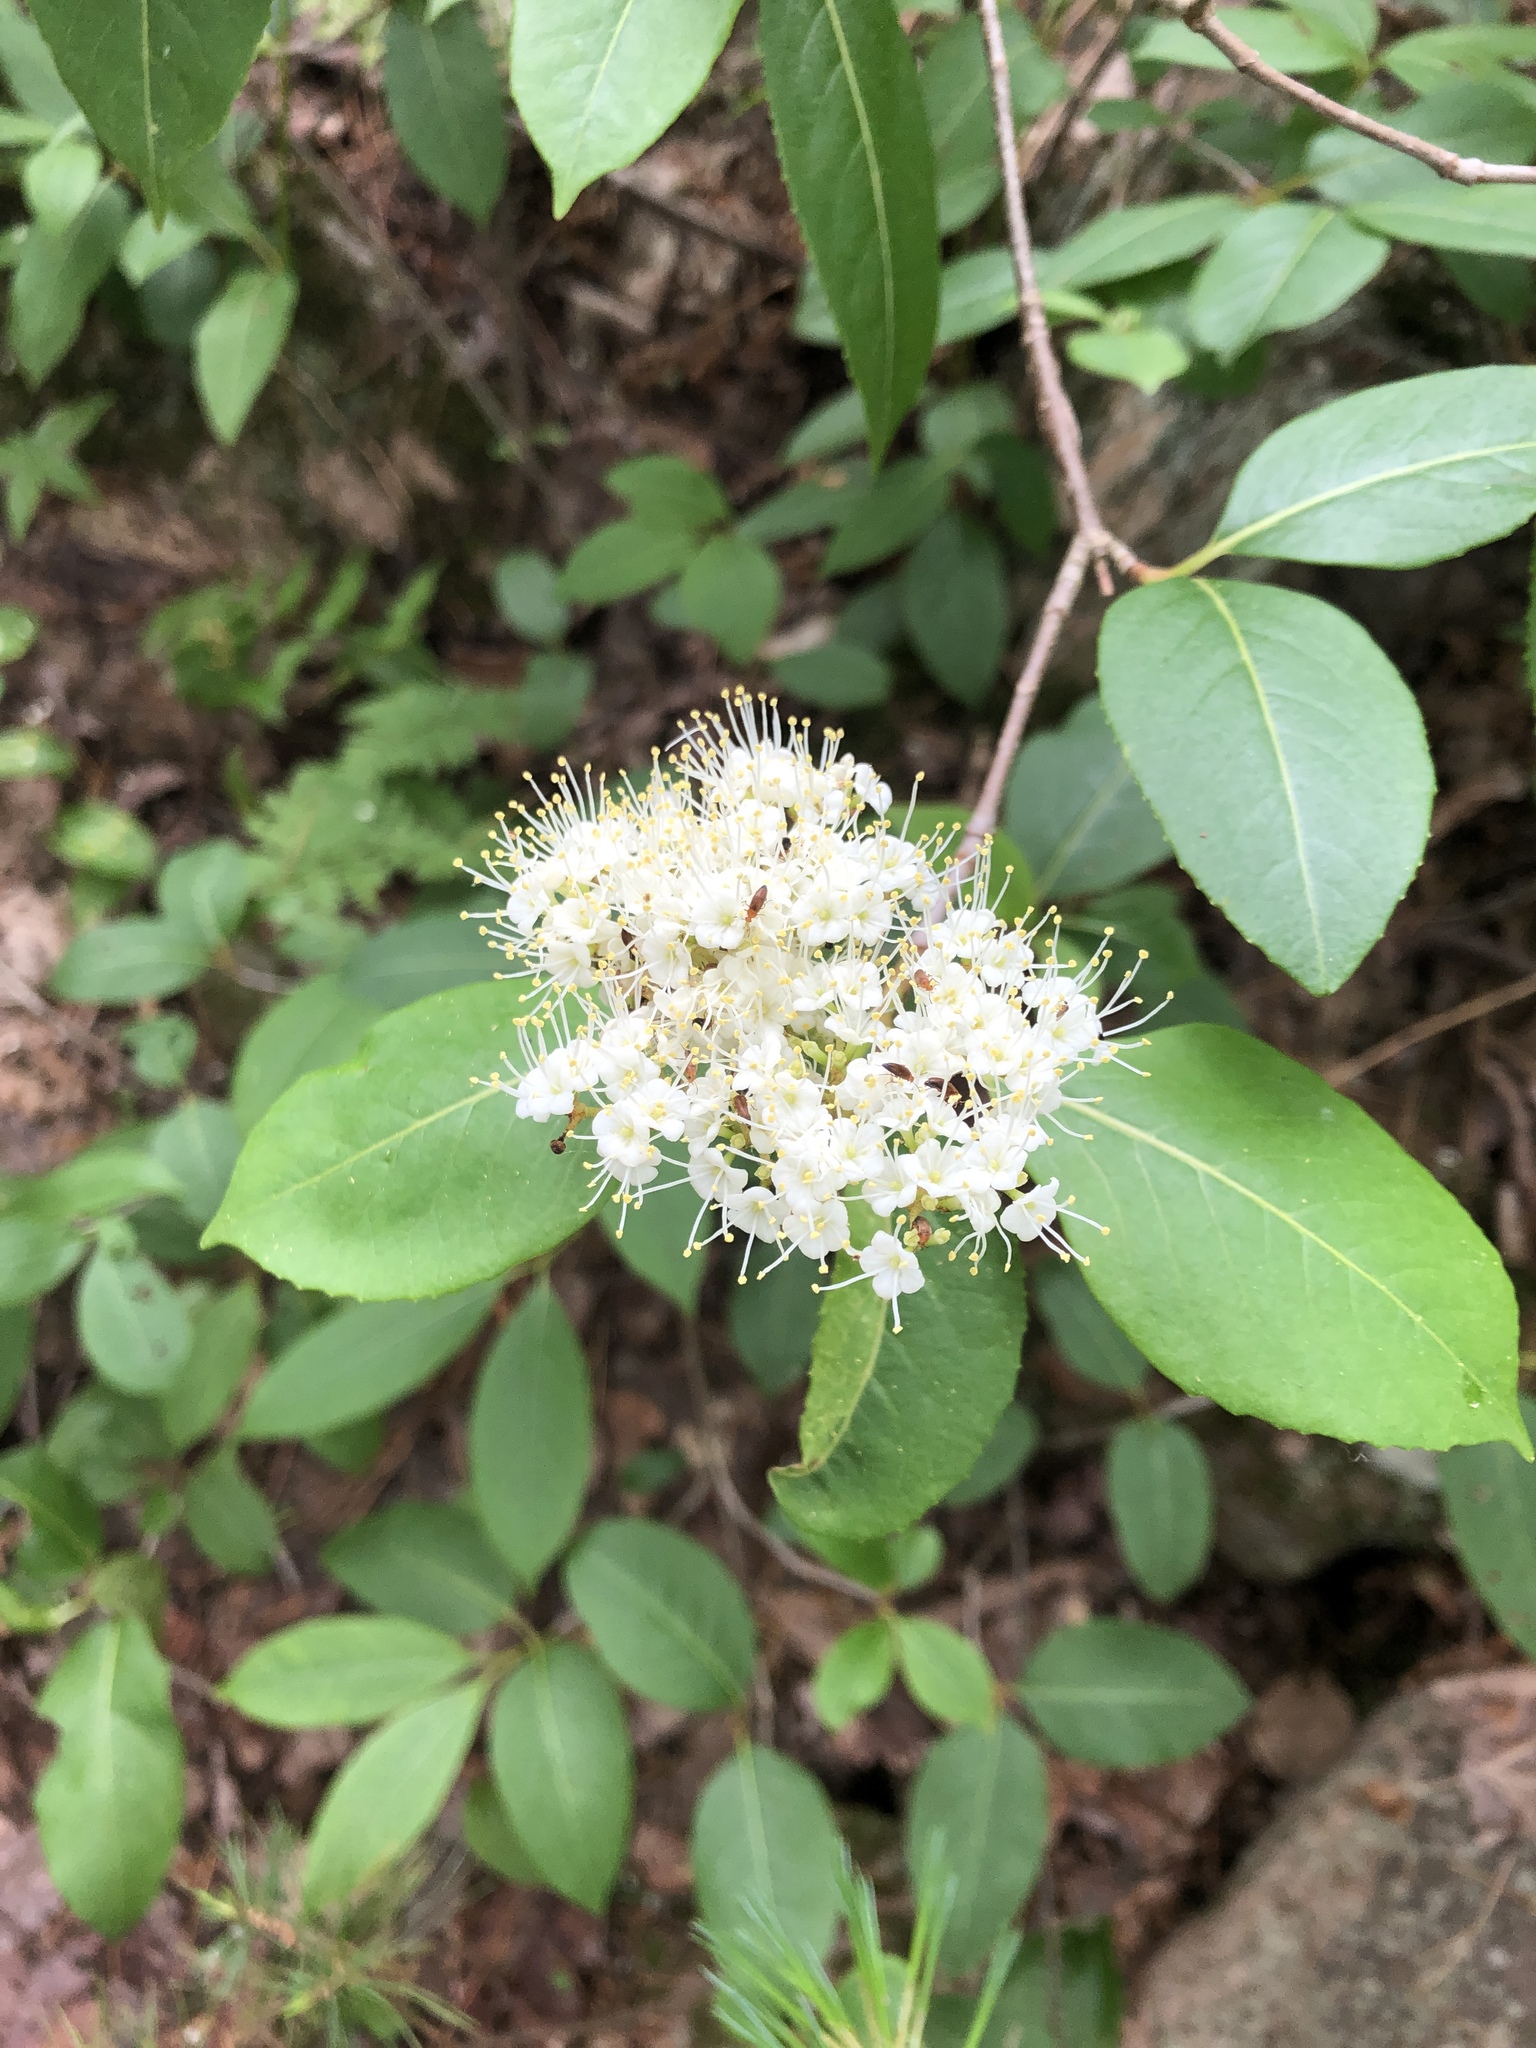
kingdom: Plantae
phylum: Tracheophyta
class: Magnoliopsida
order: Dipsacales
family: Viburnaceae
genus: Viburnum
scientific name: Viburnum cassinoides
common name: Swamp haw
